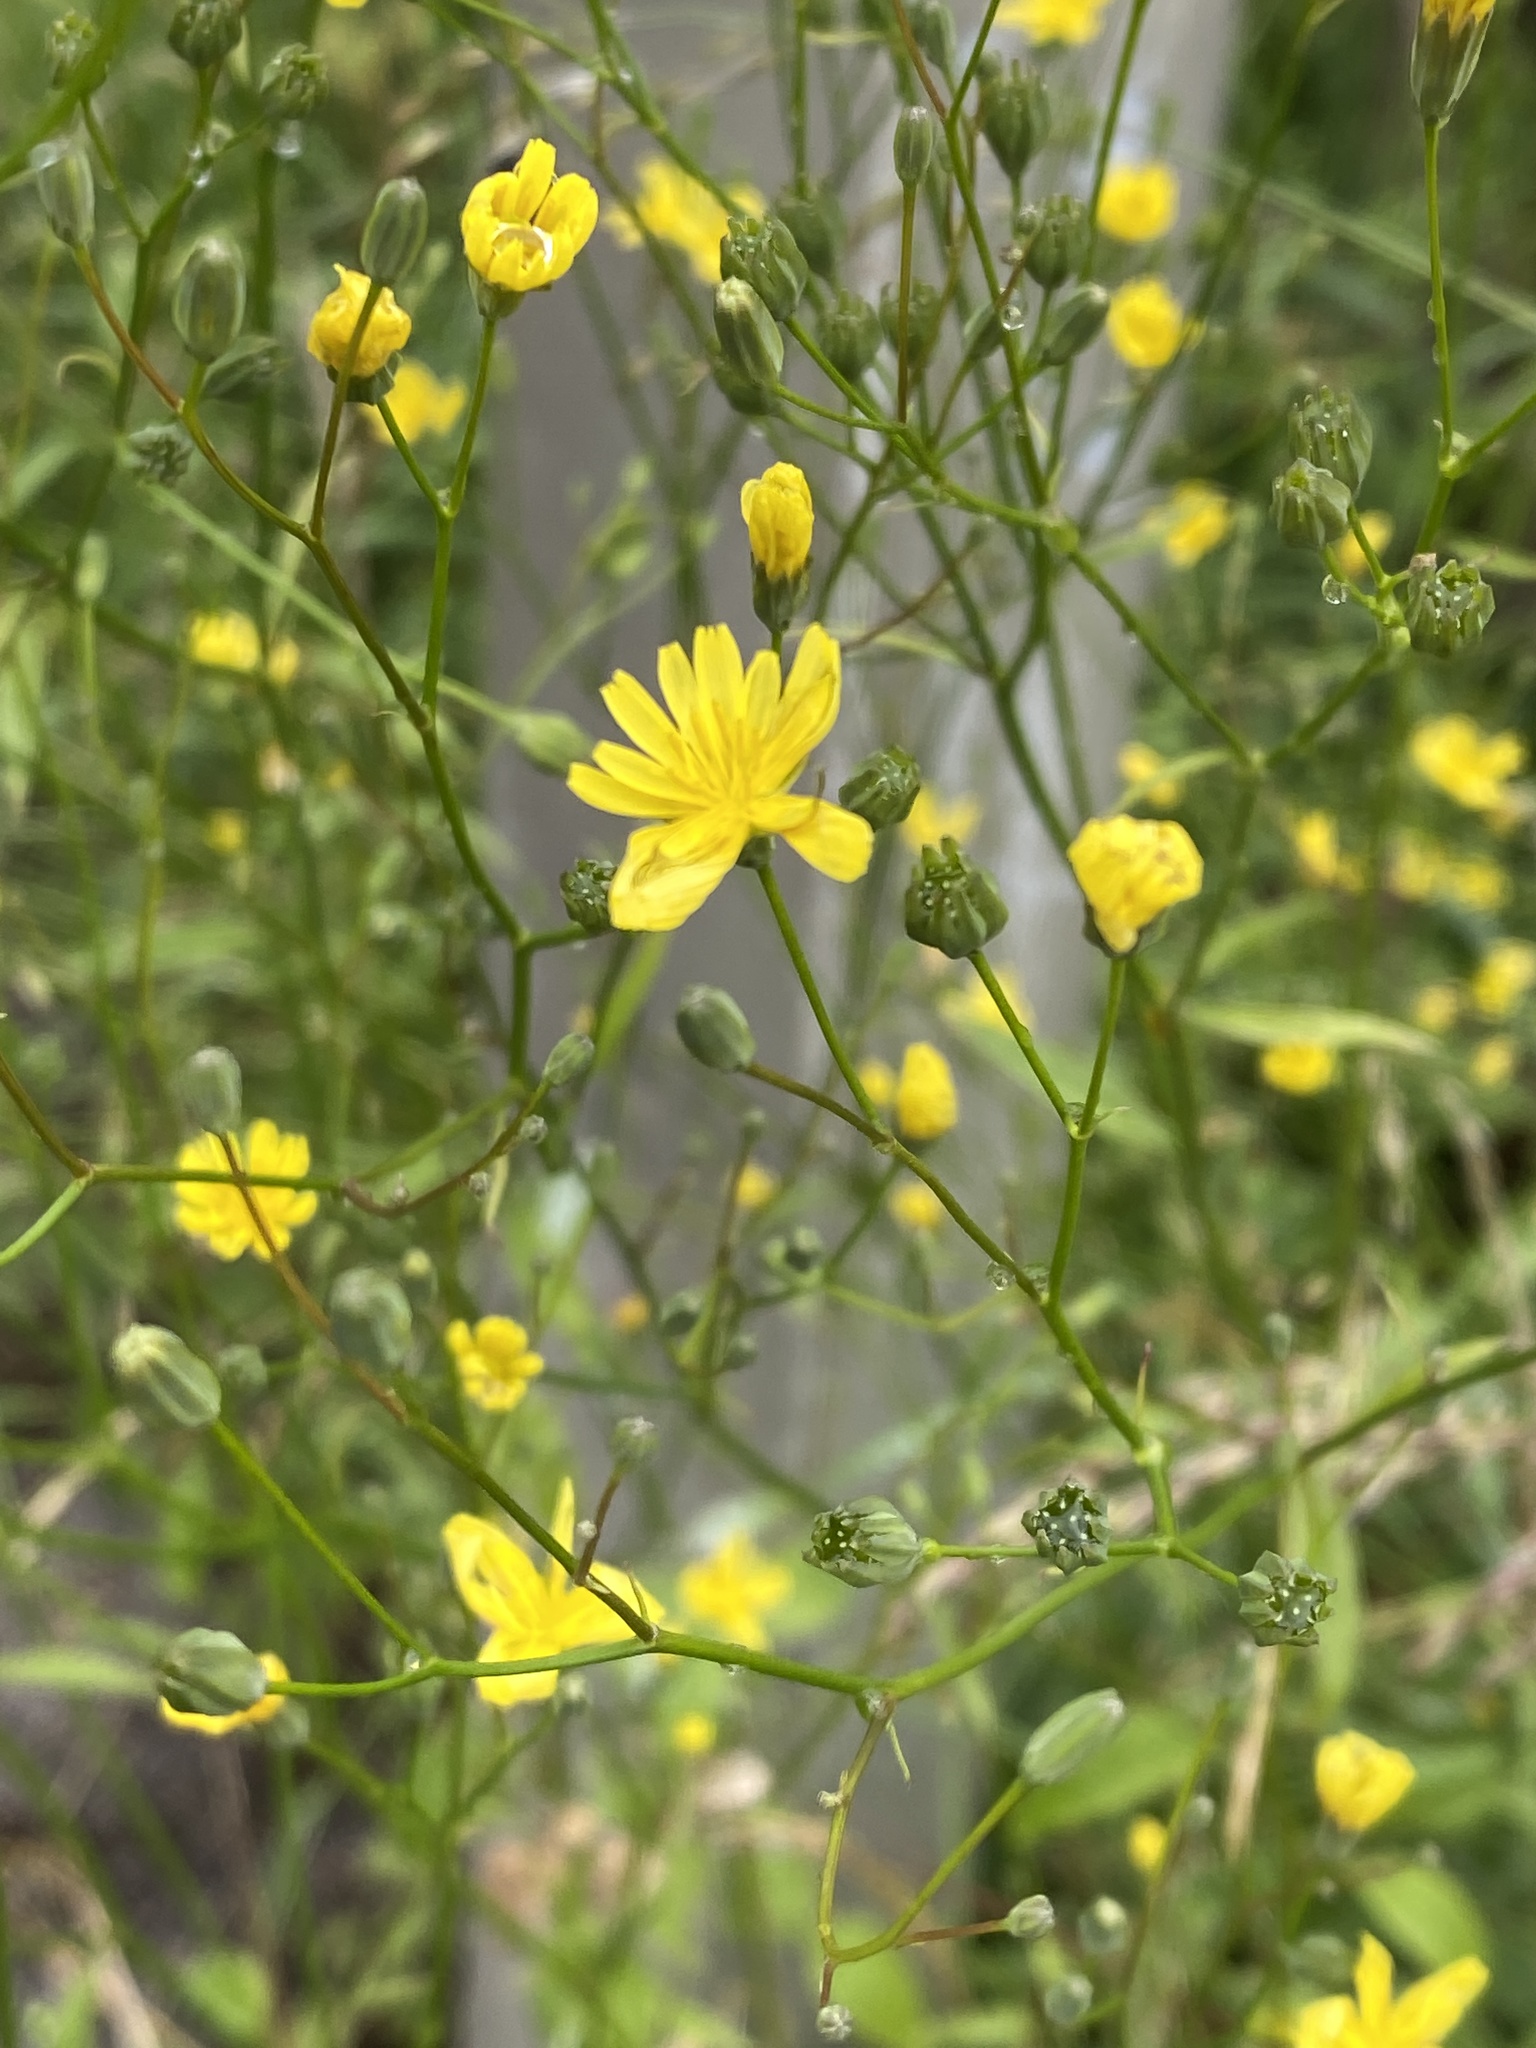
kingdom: Plantae
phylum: Tracheophyta
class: Magnoliopsida
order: Asterales
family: Asteraceae
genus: Lapsana
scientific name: Lapsana communis
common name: Nipplewort
